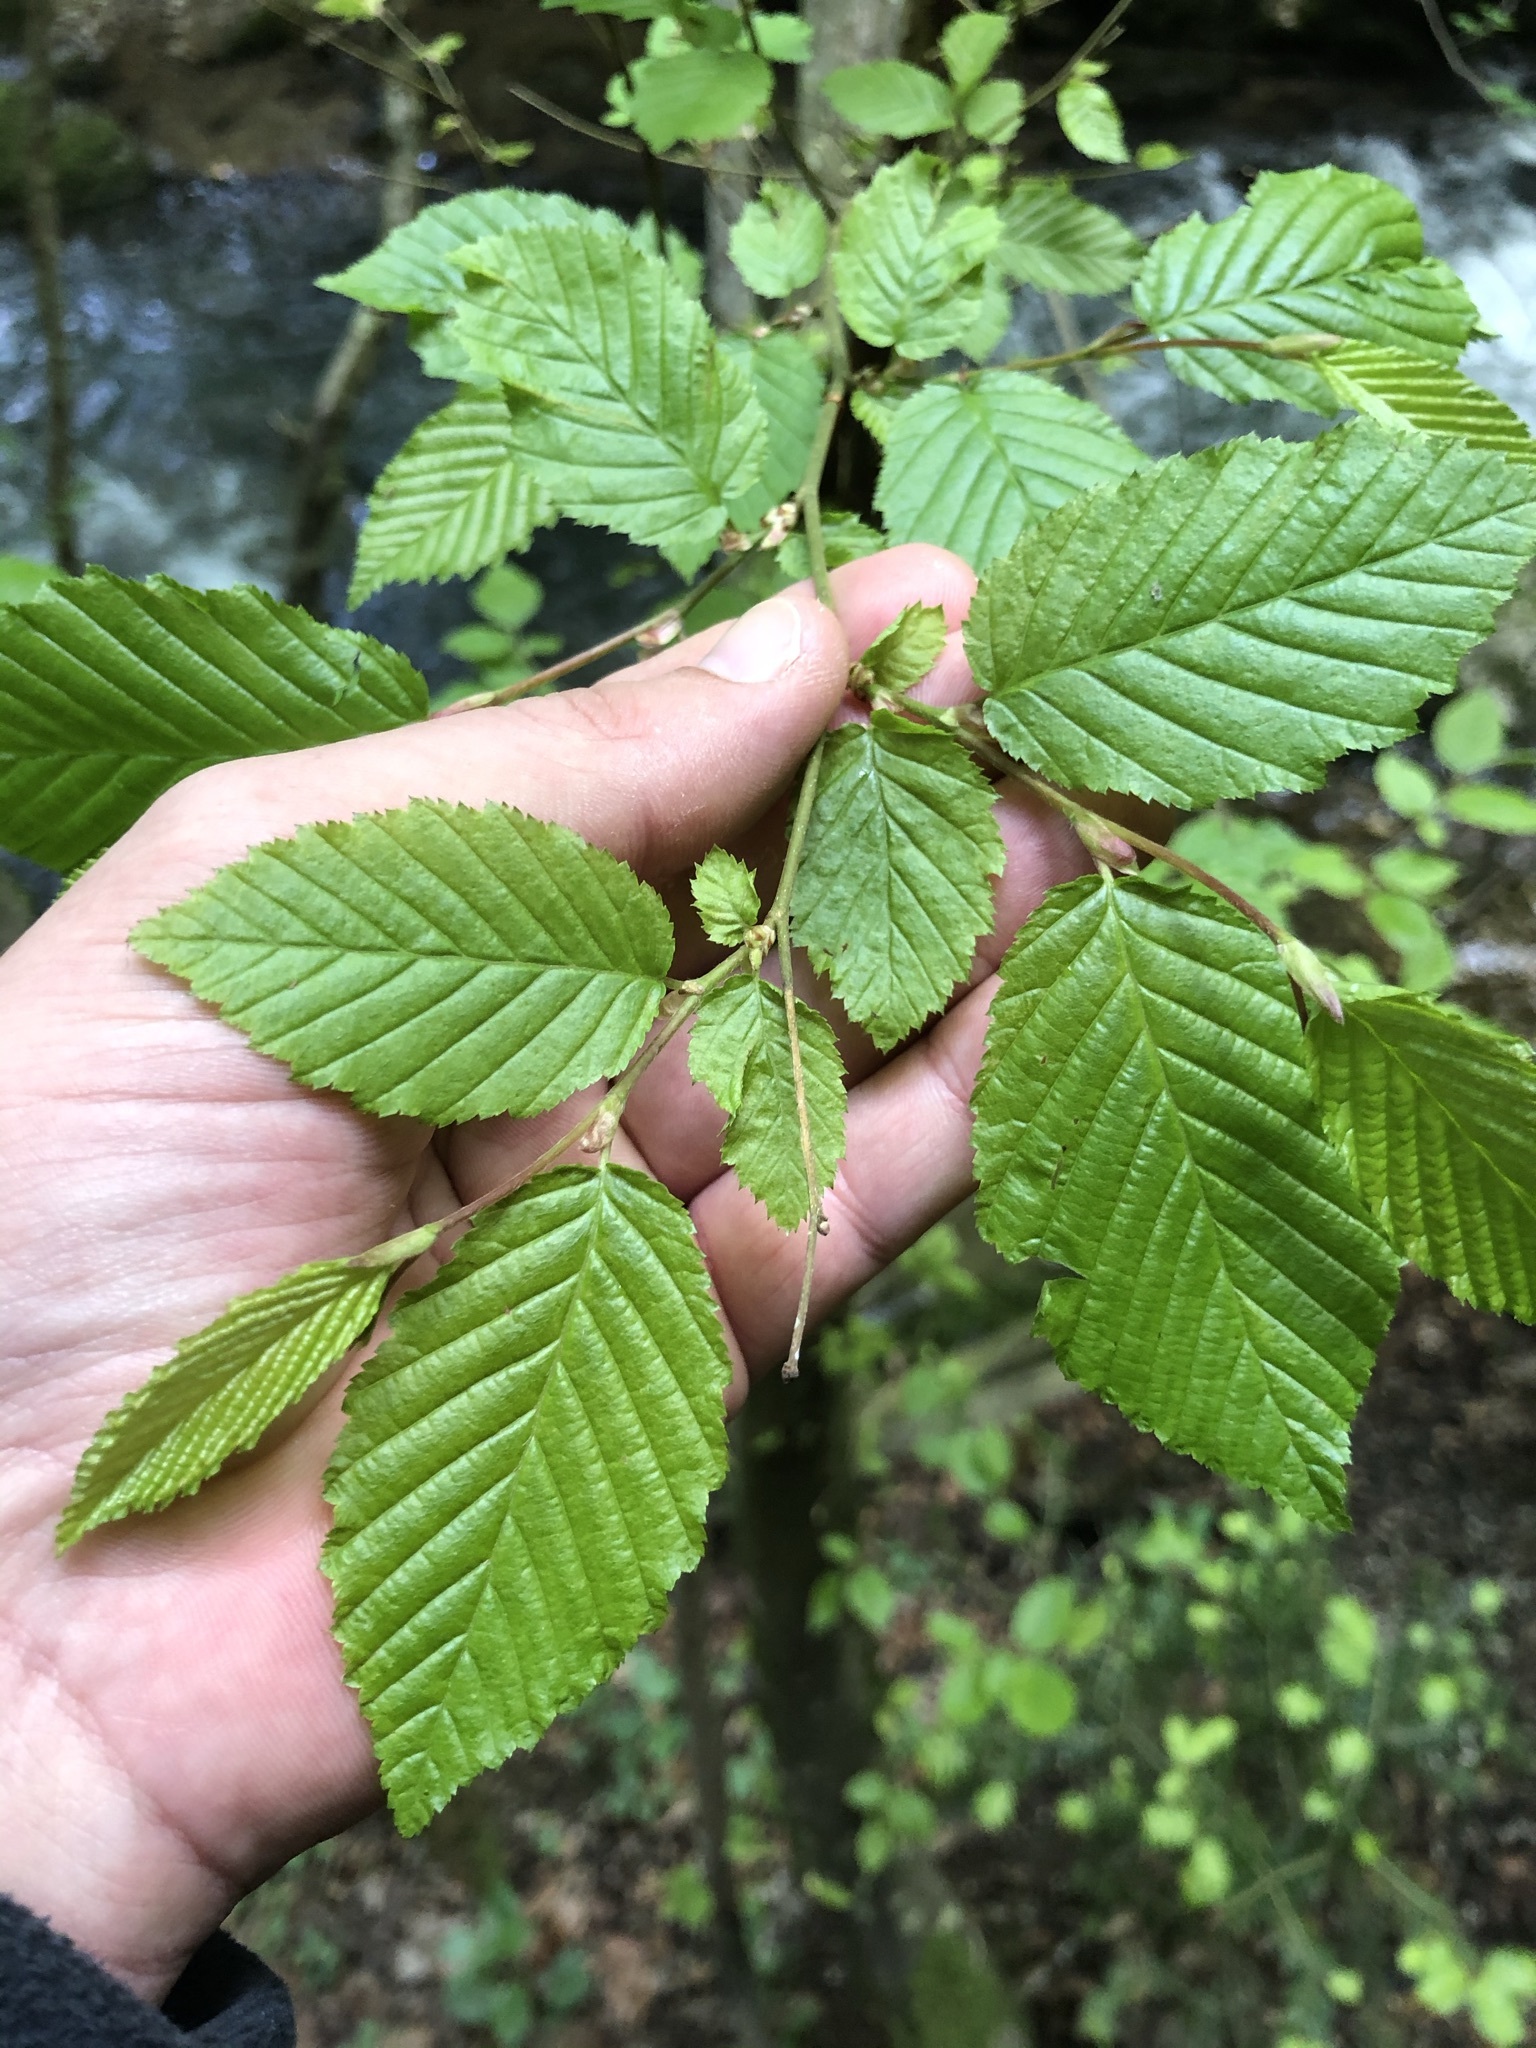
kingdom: Plantae
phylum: Tracheophyta
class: Magnoliopsida
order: Fagales
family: Betulaceae
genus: Carpinus
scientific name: Carpinus betulus
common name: Hornbeam
